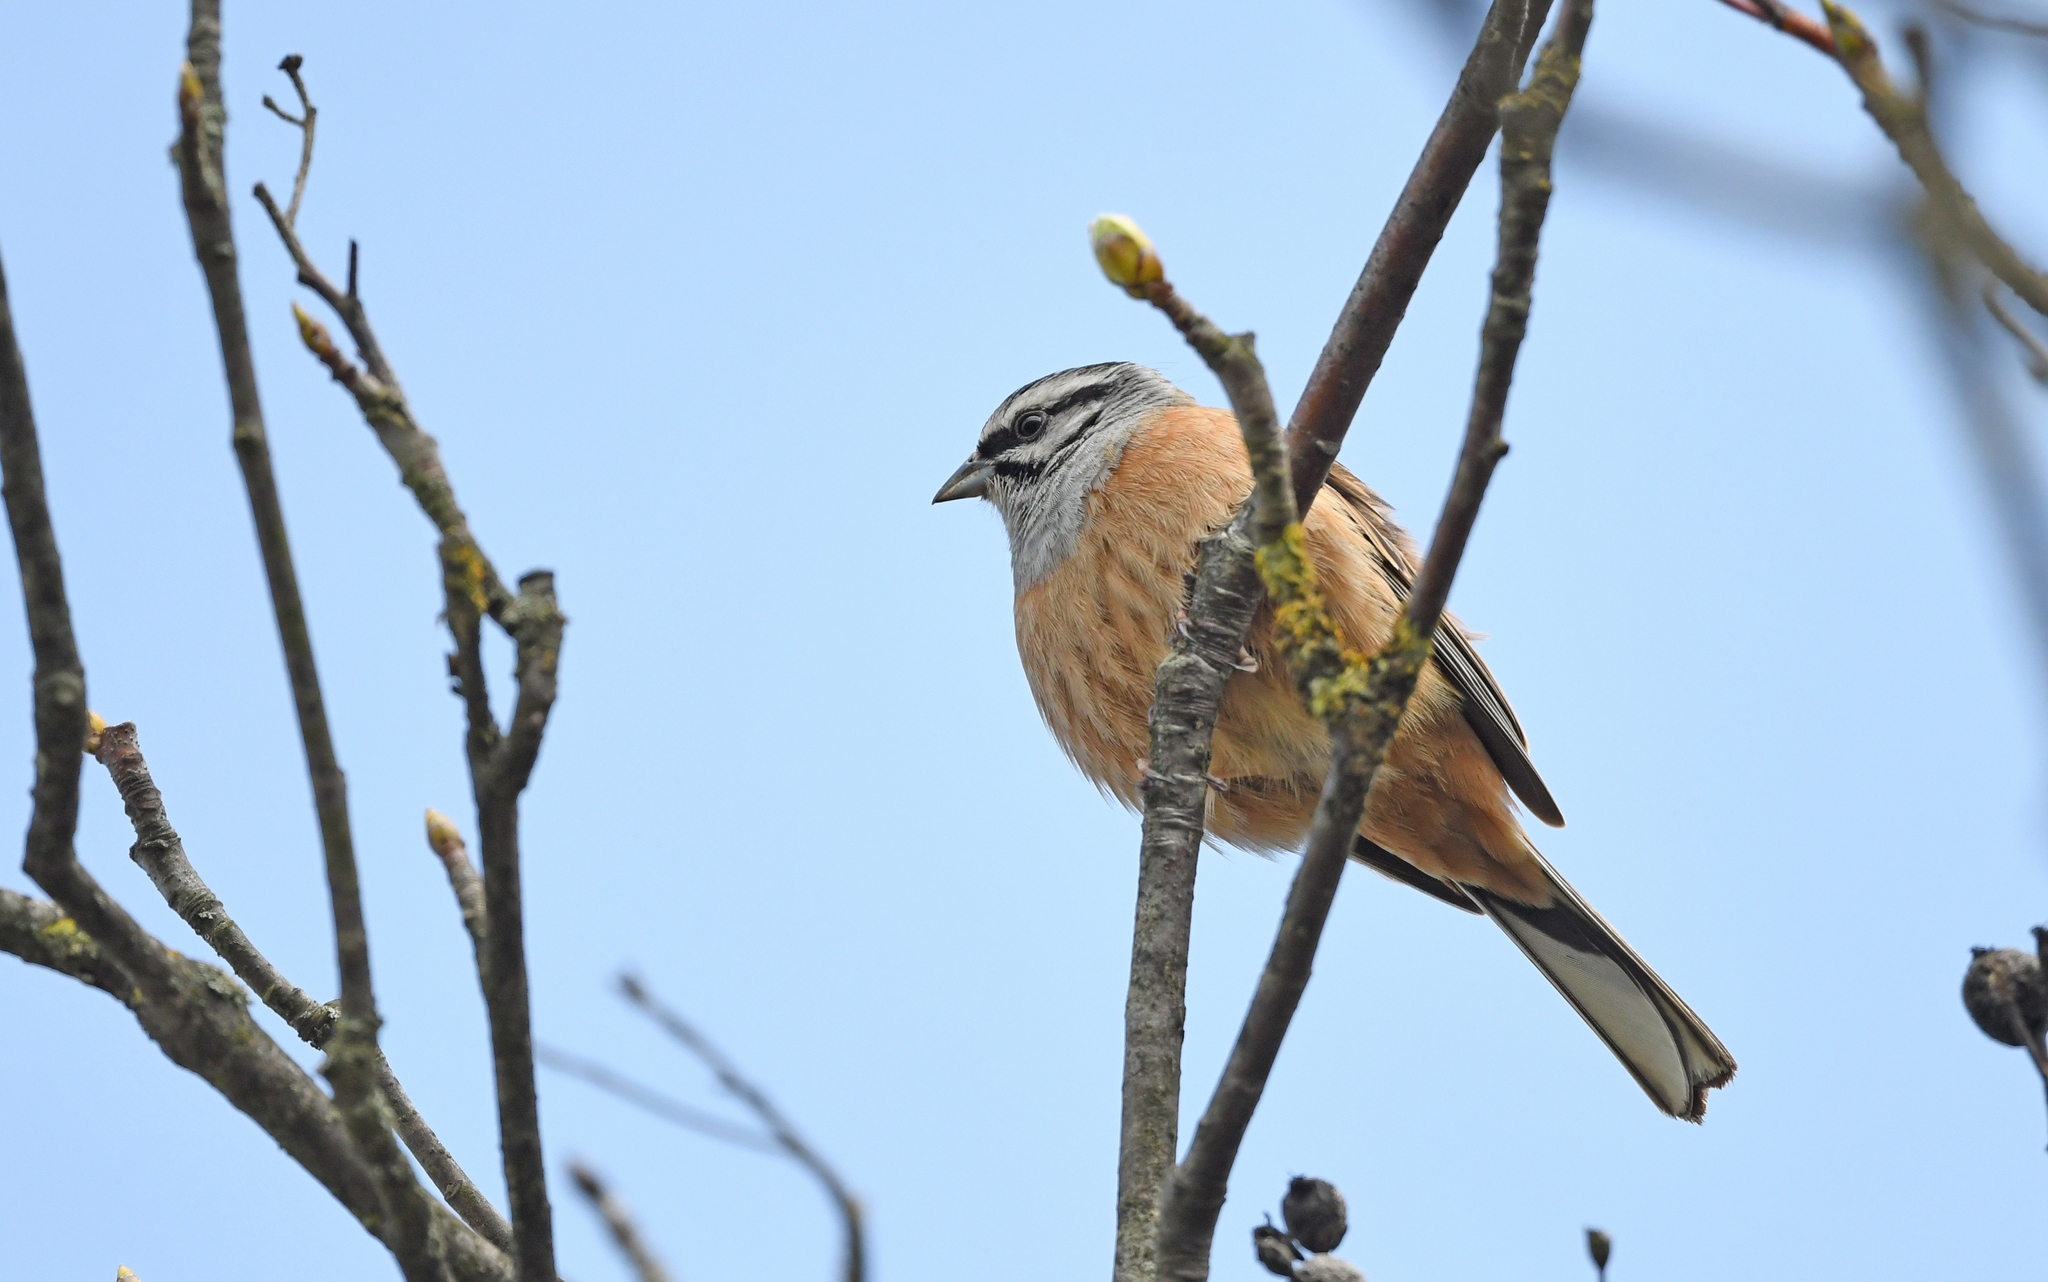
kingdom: Animalia
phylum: Chordata
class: Aves
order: Passeriformes
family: Emberizidae
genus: Emberiza
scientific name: Emberiza cia
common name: Rock bunting
